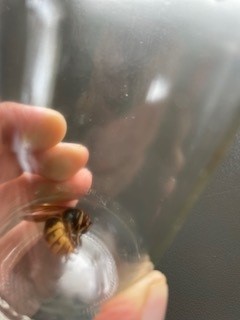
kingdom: Animalia
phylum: Arthropoda
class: Insecta
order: Hymenoptera
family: Vespidae
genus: Vespa
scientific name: Vespa crabro
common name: Hornet
